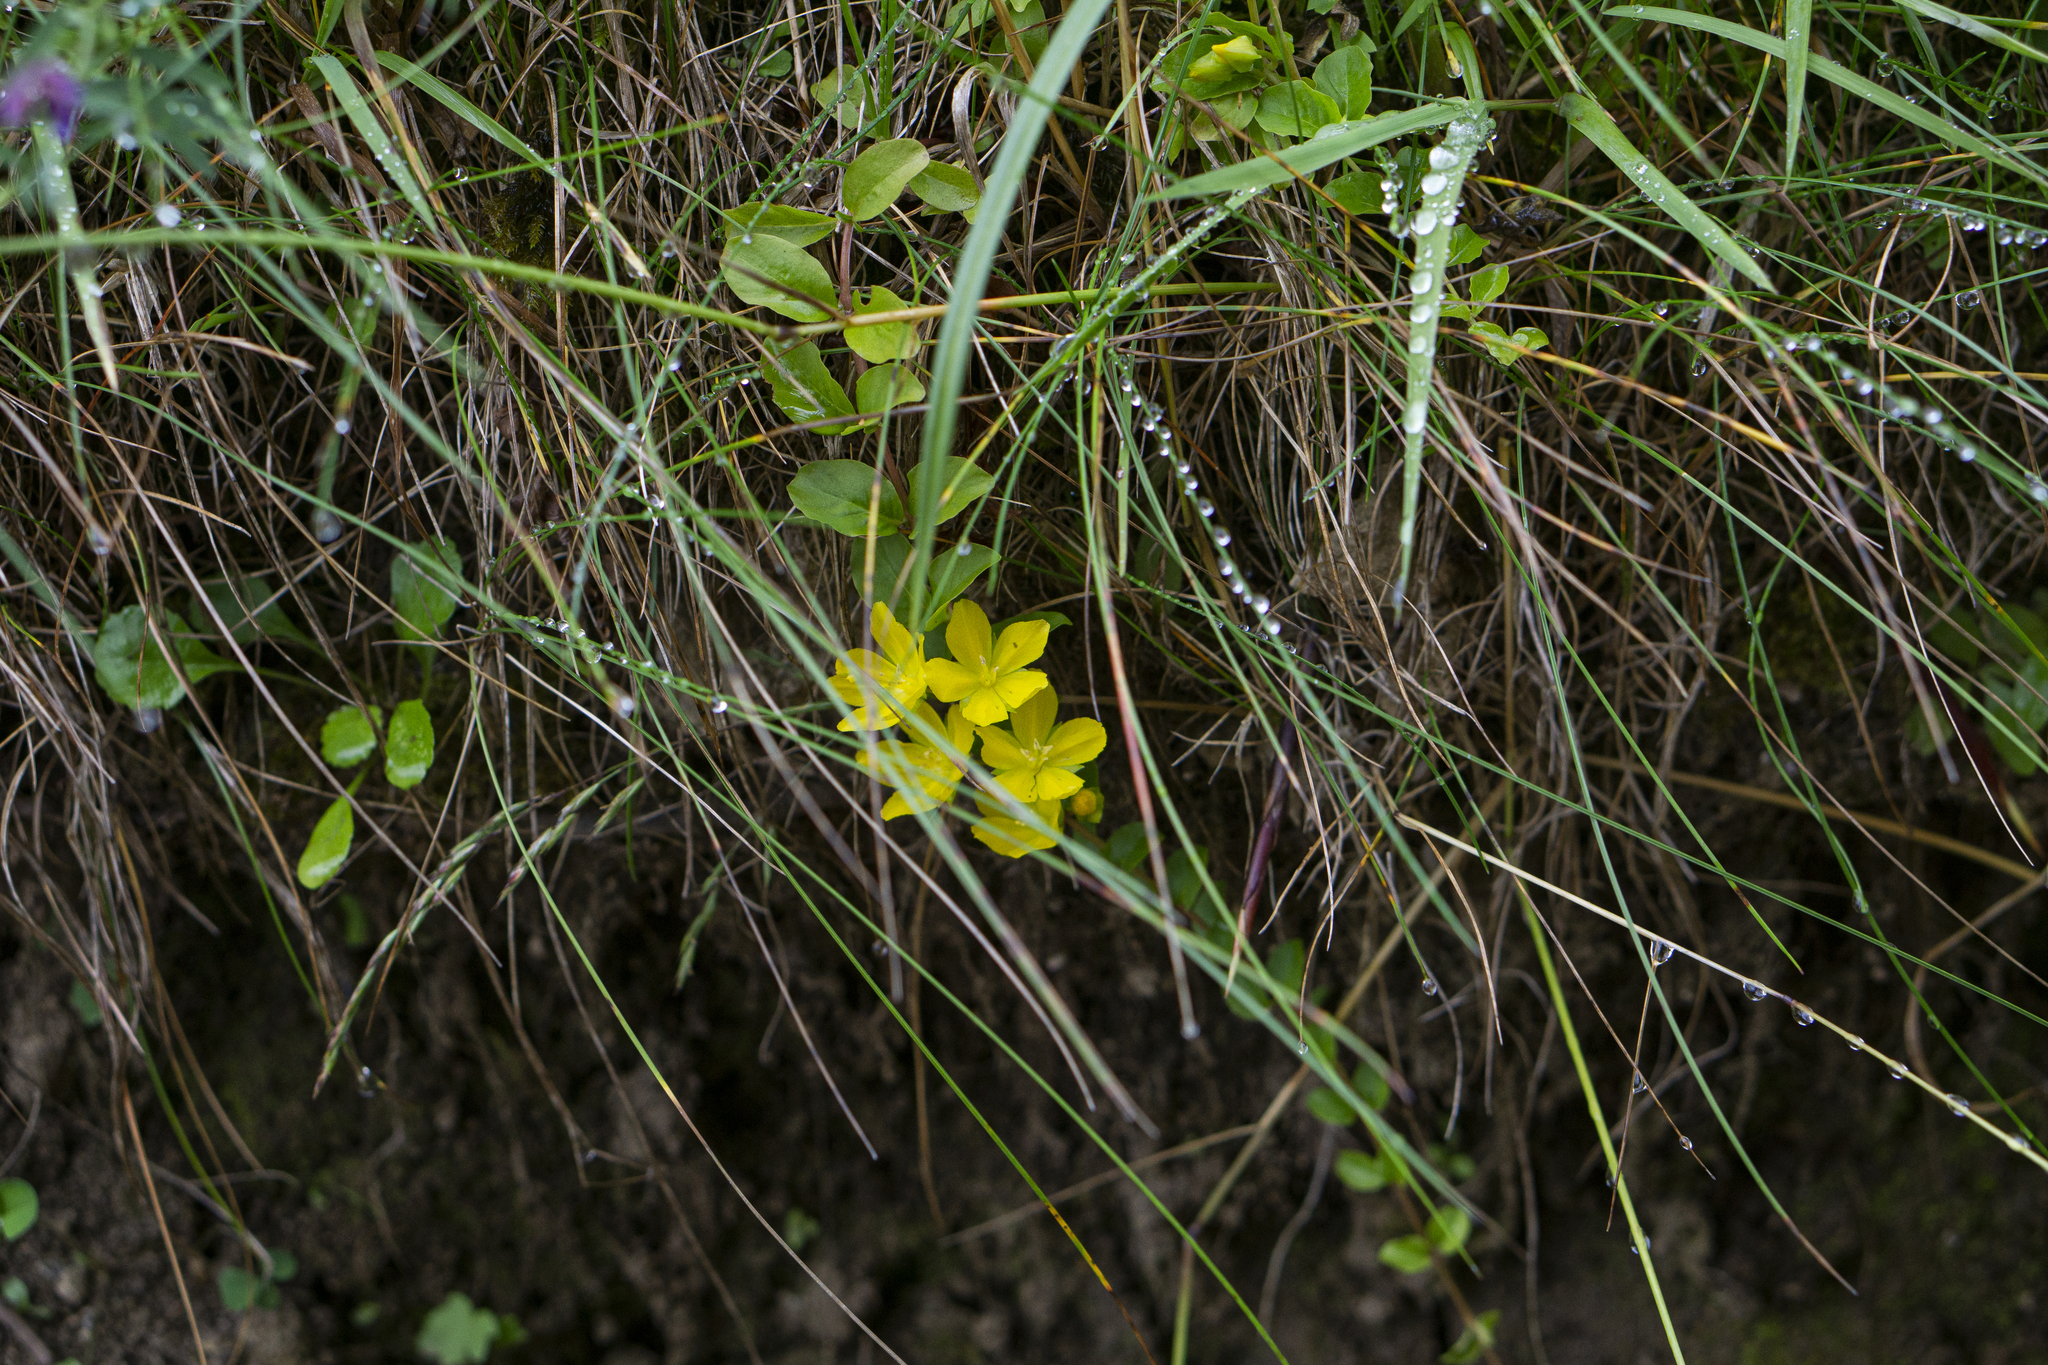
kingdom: Plantae
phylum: Tracheophyta
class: Magnoliopsida
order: Ericales
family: Primulaceae
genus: Lysimachia
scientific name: Lysimachia nummularia
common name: Moneywort
